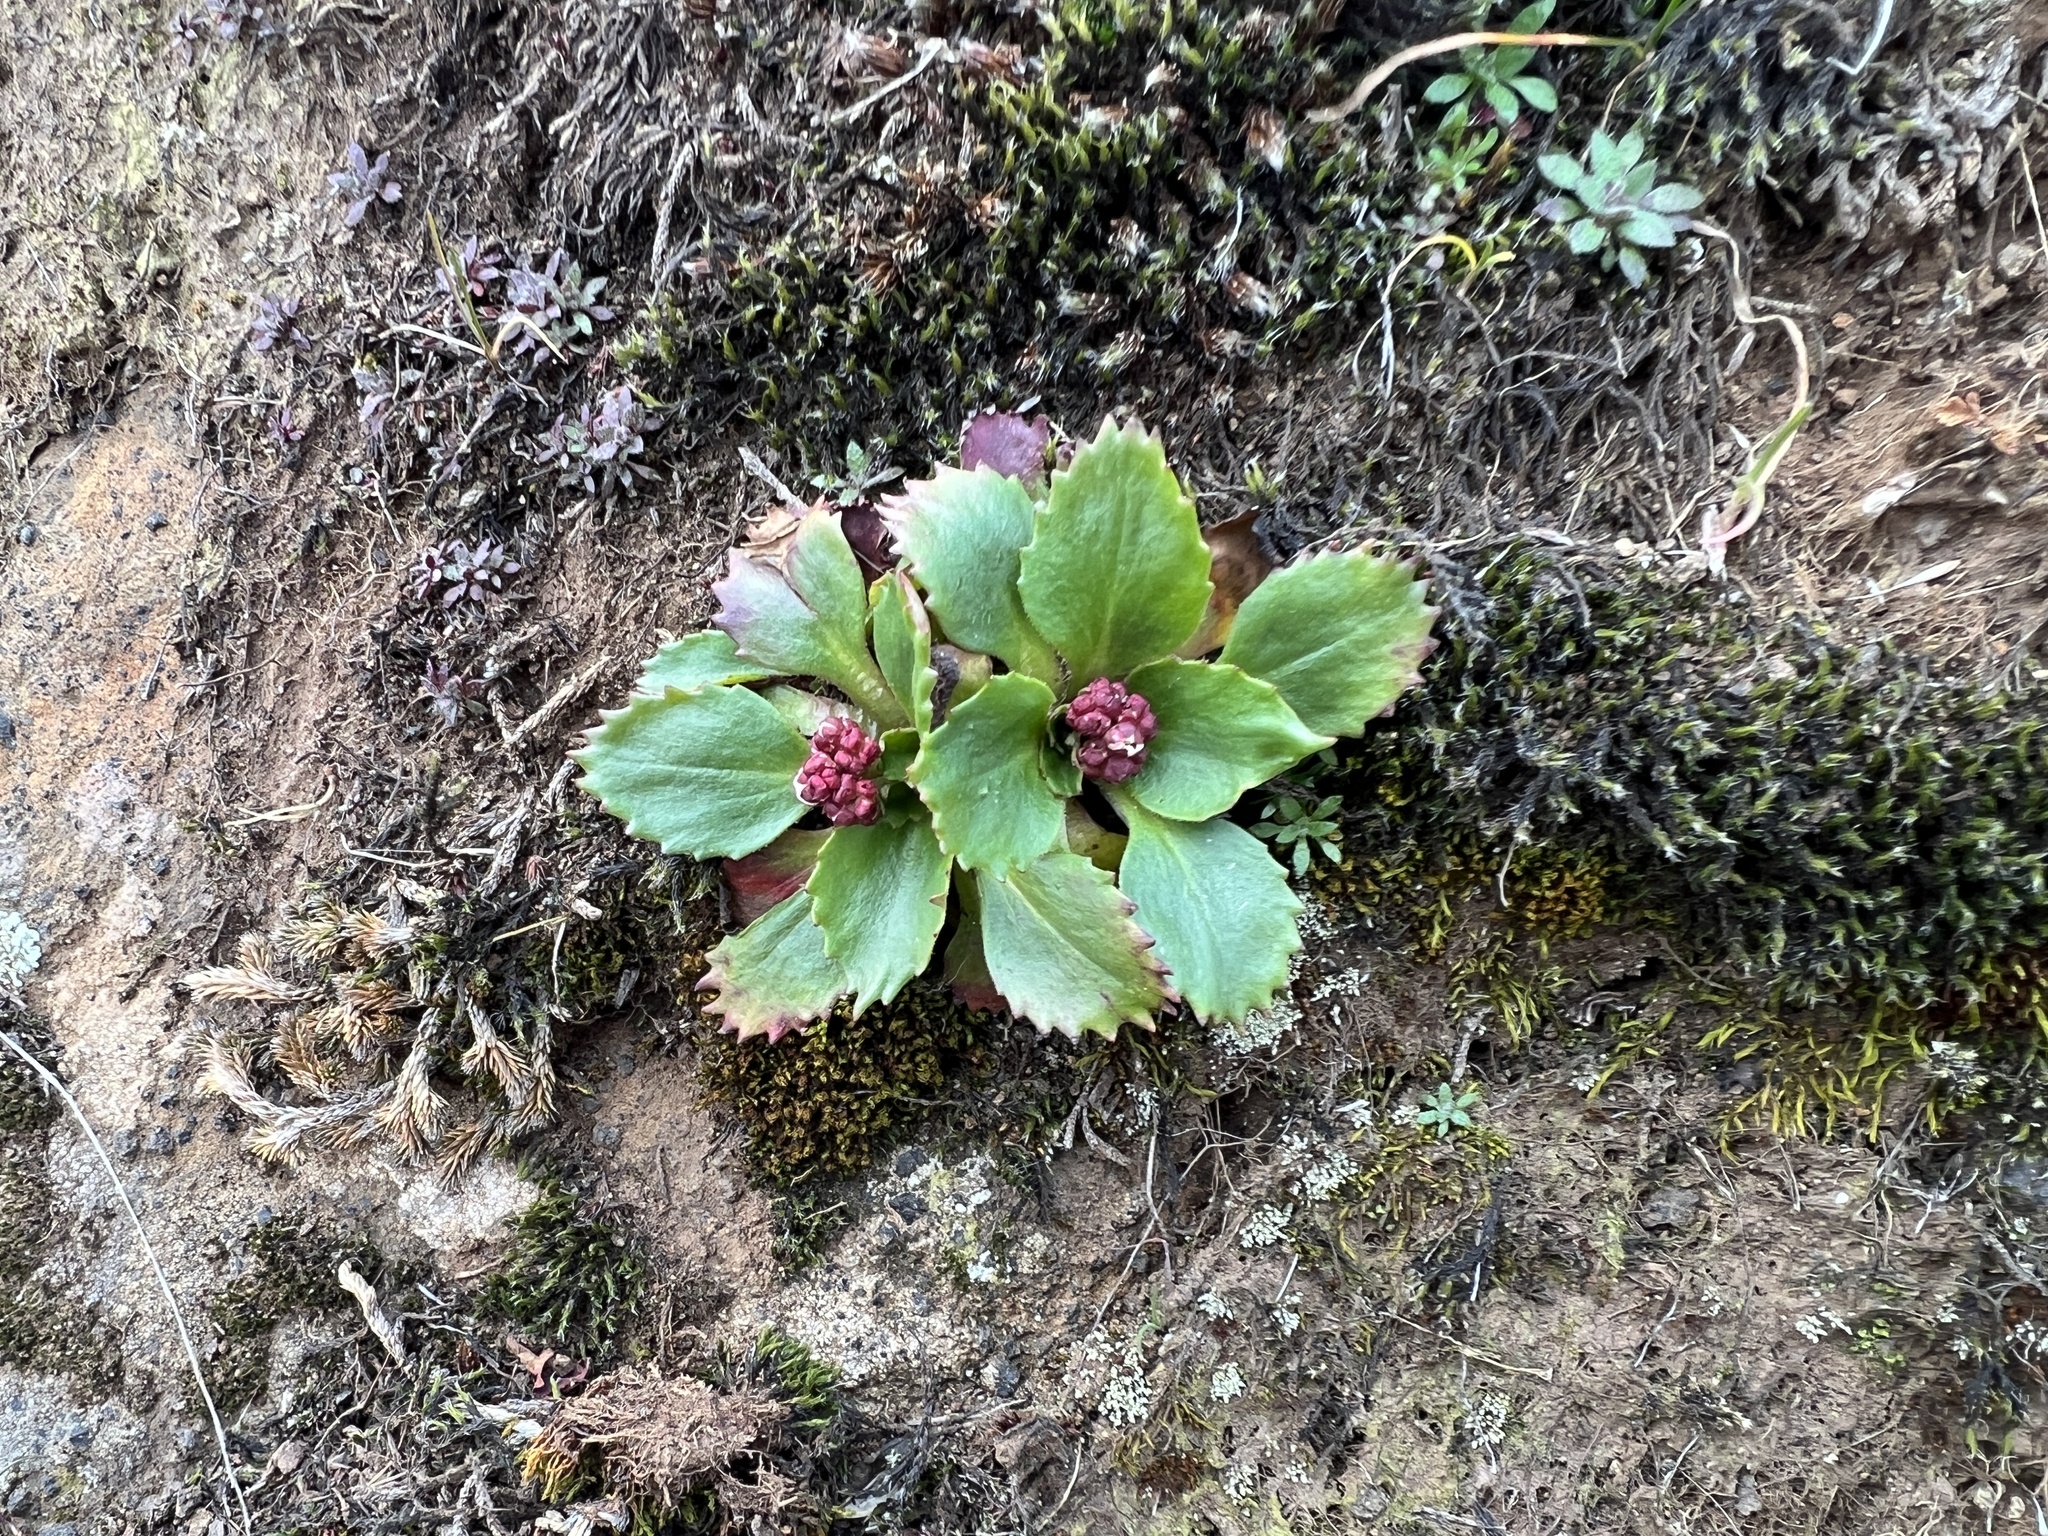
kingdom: Plantae
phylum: Tracheophyta
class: Magnoliopsida
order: Saxifragales
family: Saxifragaceae
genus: Micranthes
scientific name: Micranthes rufidula
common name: Rustyhair saxifrage
